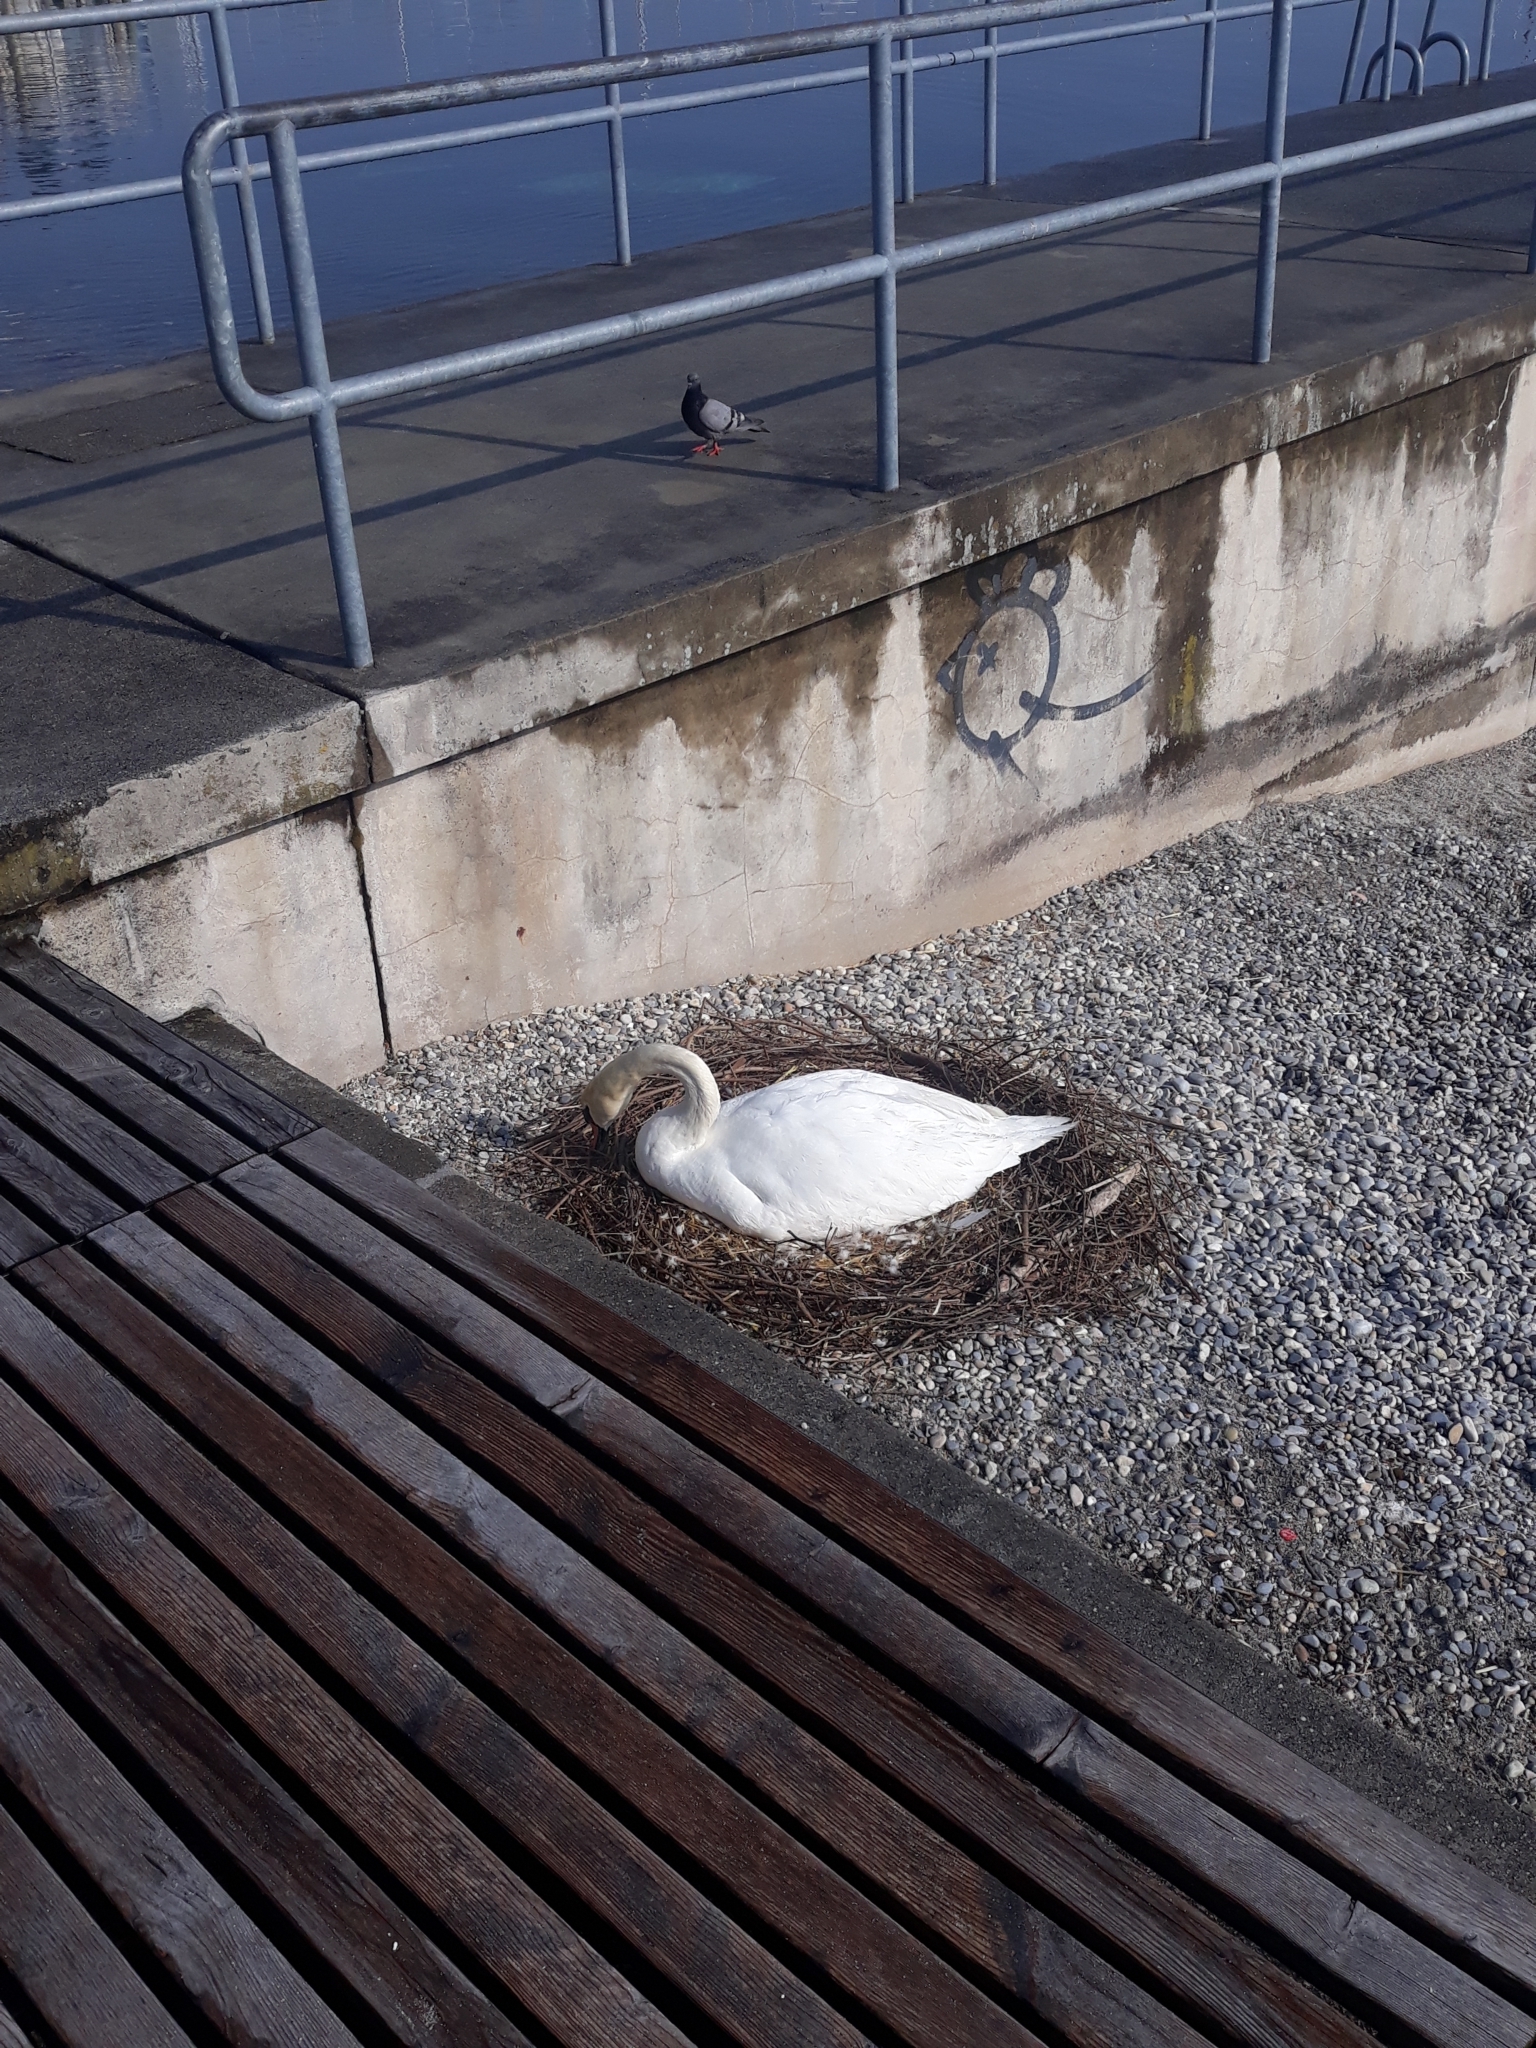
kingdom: Animalia
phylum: Chordata
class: Aves
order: Anseriformes
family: Anatidae
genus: Cygnus
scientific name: Cygnus olor
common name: Mute swan
